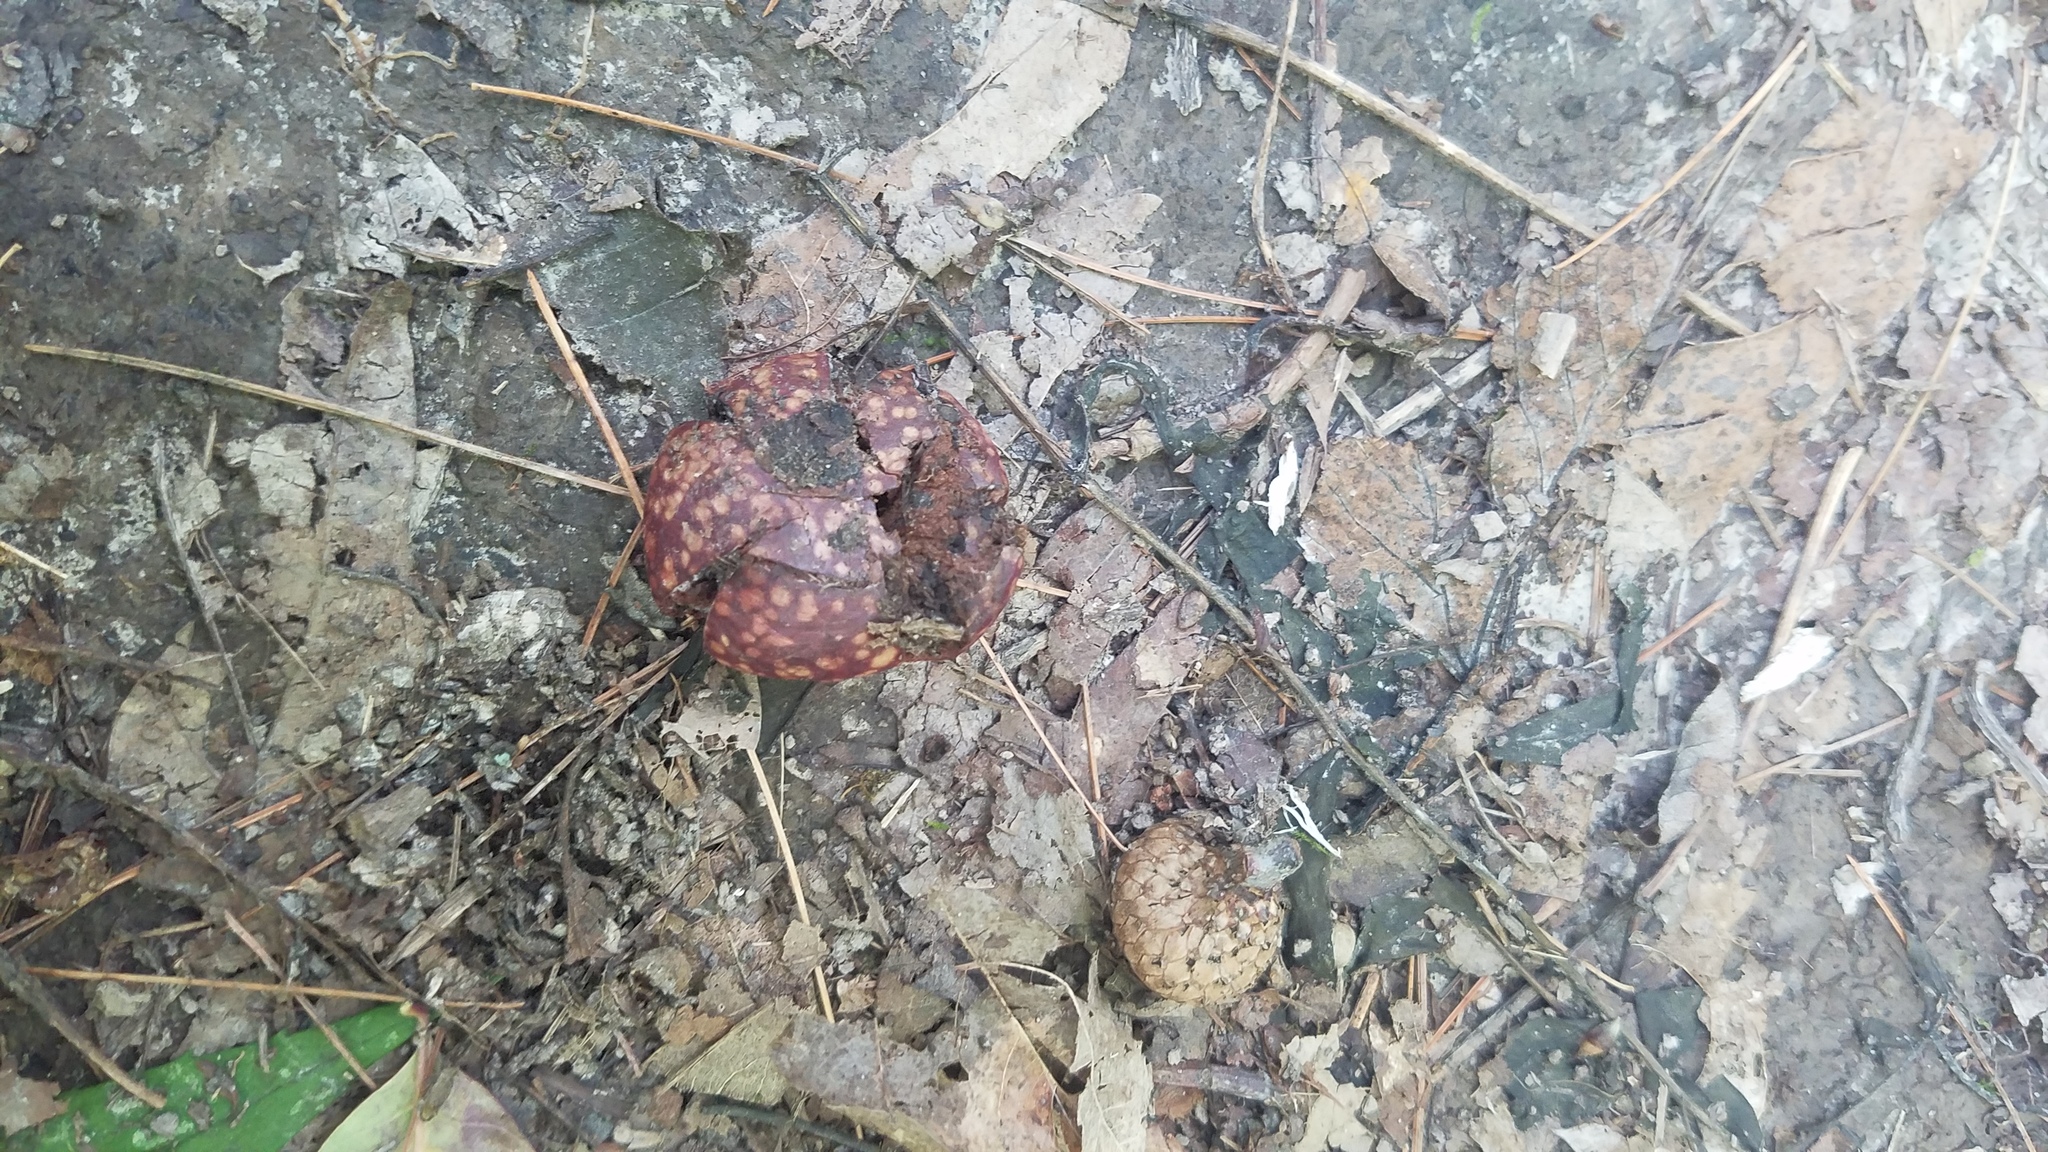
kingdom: Animalia
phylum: Arthropoda
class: Insecta
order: Hymenoptera
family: Cynipidae
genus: Amphibolips
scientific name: Amphibolips
